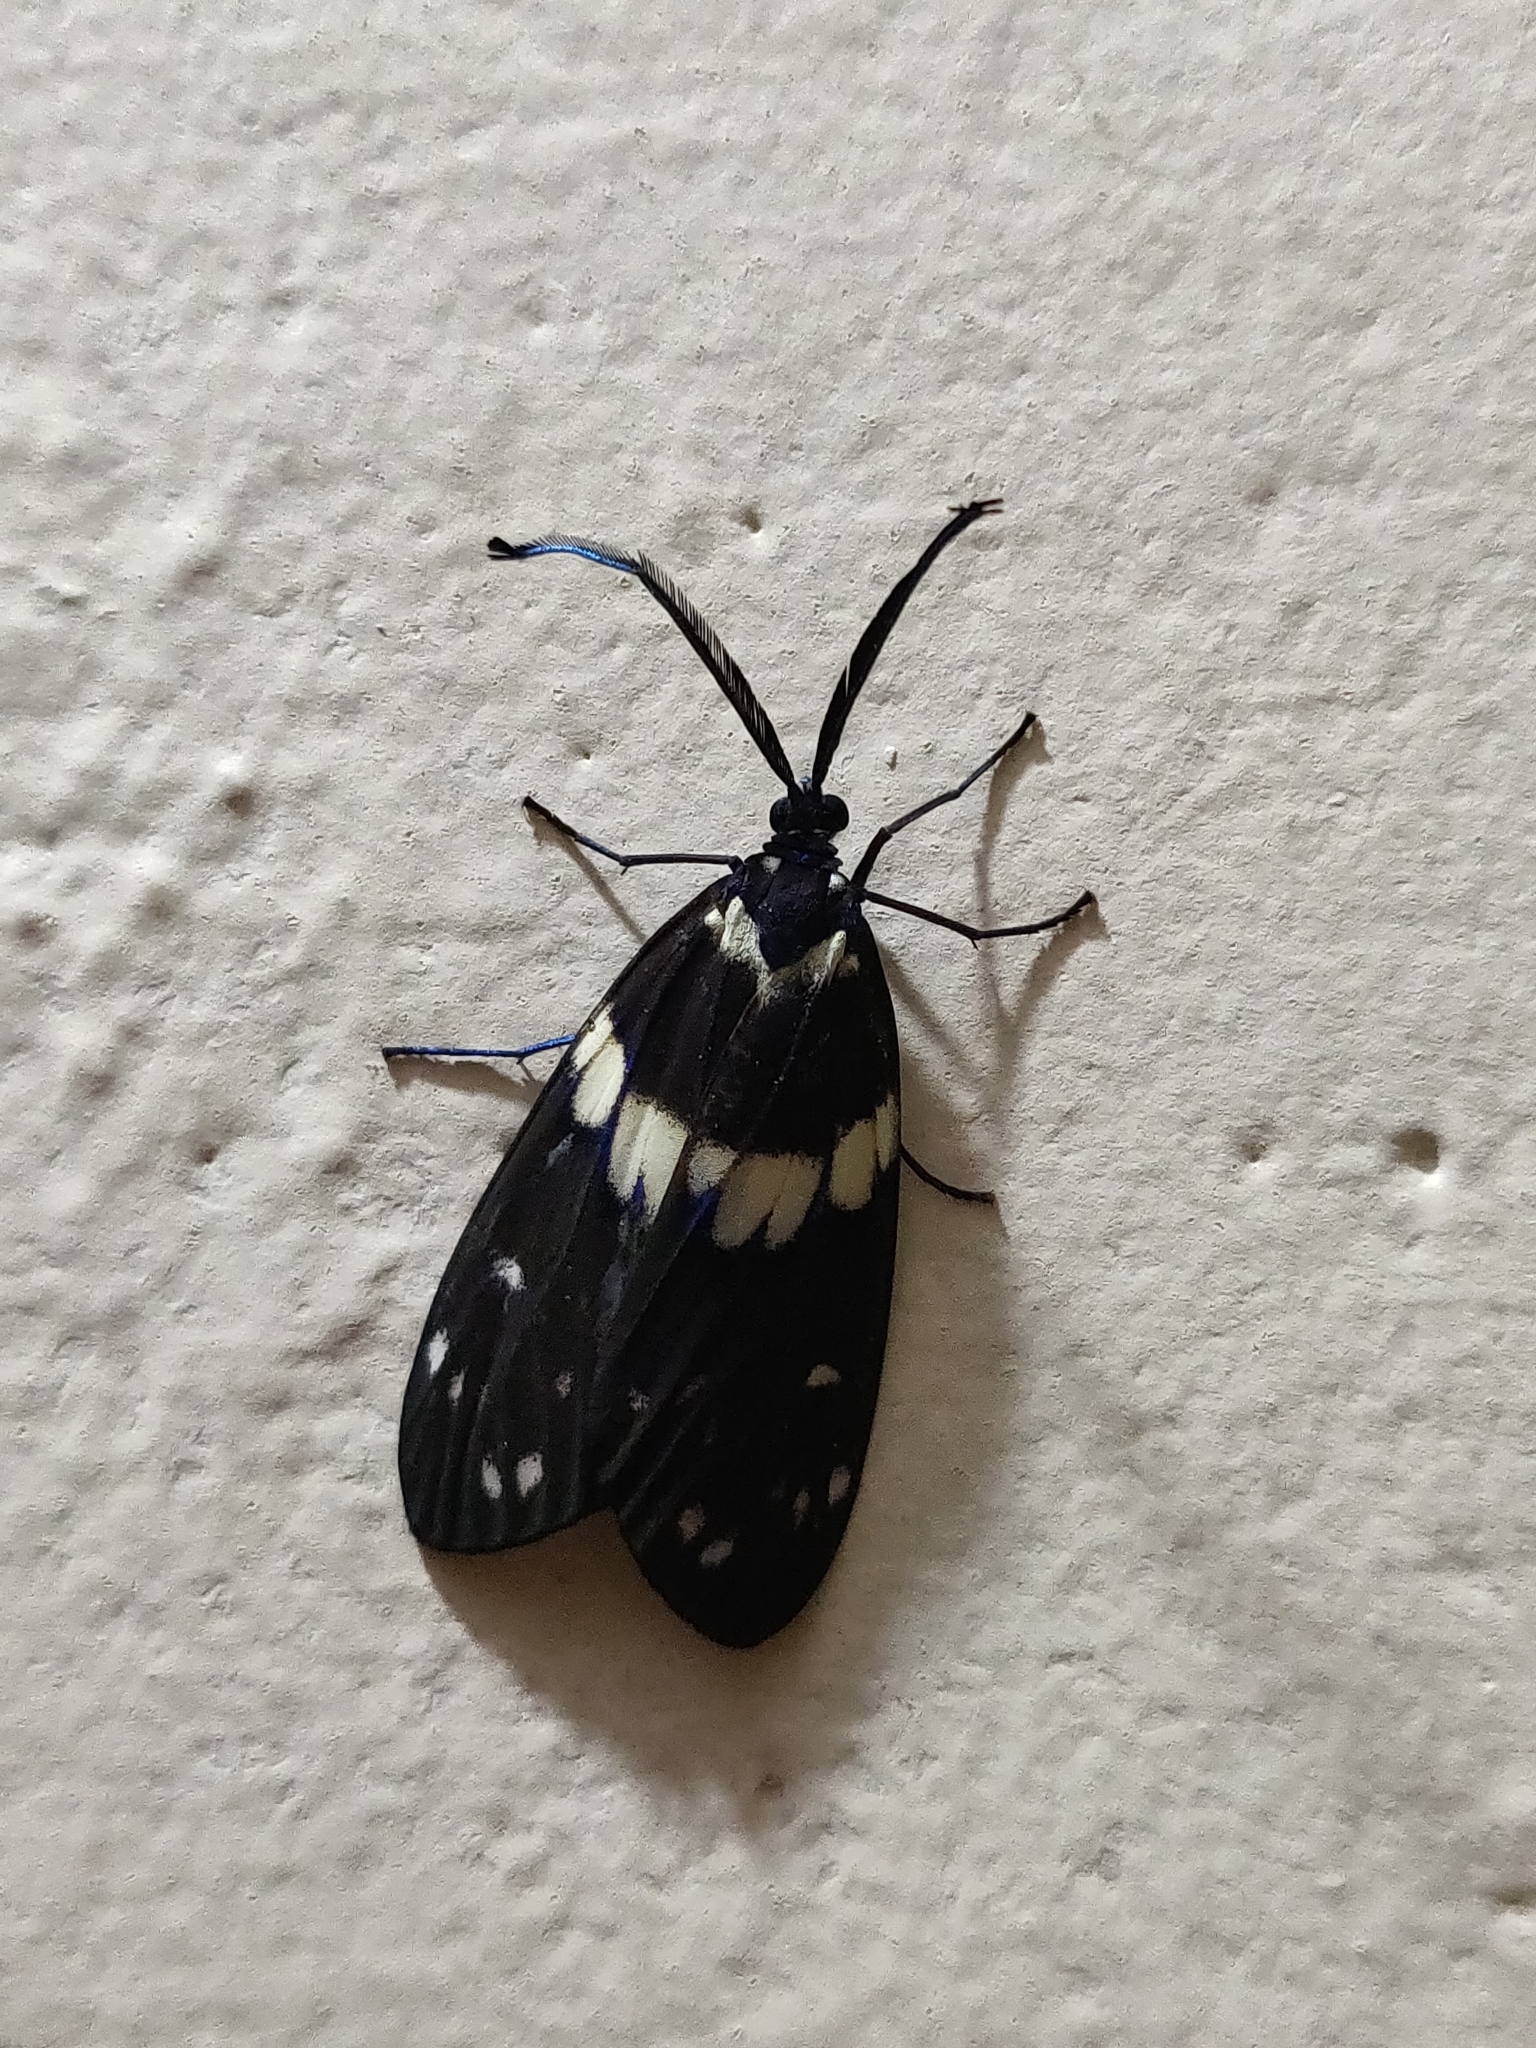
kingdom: Animalia
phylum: Arthropoda
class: Insecta
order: Lepidoptera
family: Zygaenidae
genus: Eterusia
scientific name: Eterusia aedea
